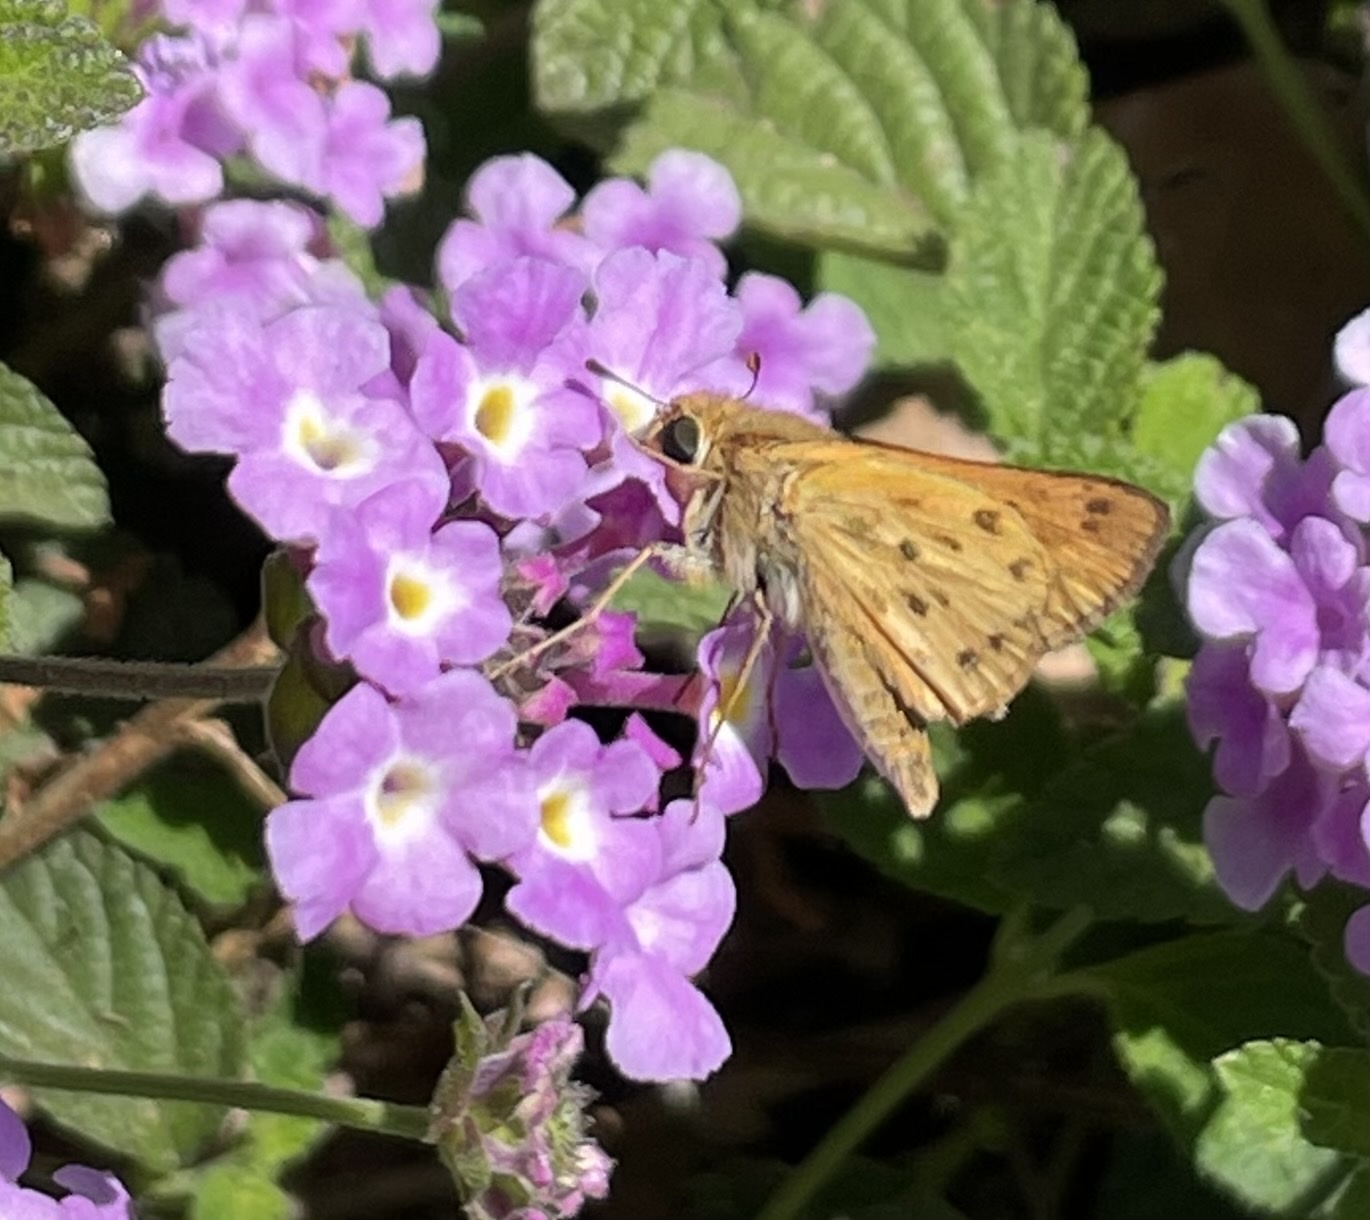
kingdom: Animalia
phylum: Arthropoda
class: Insecta
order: Lepidoptera
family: Hesperiidae
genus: Hylephila
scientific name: Hylephila phyleus
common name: Fiery skipper
